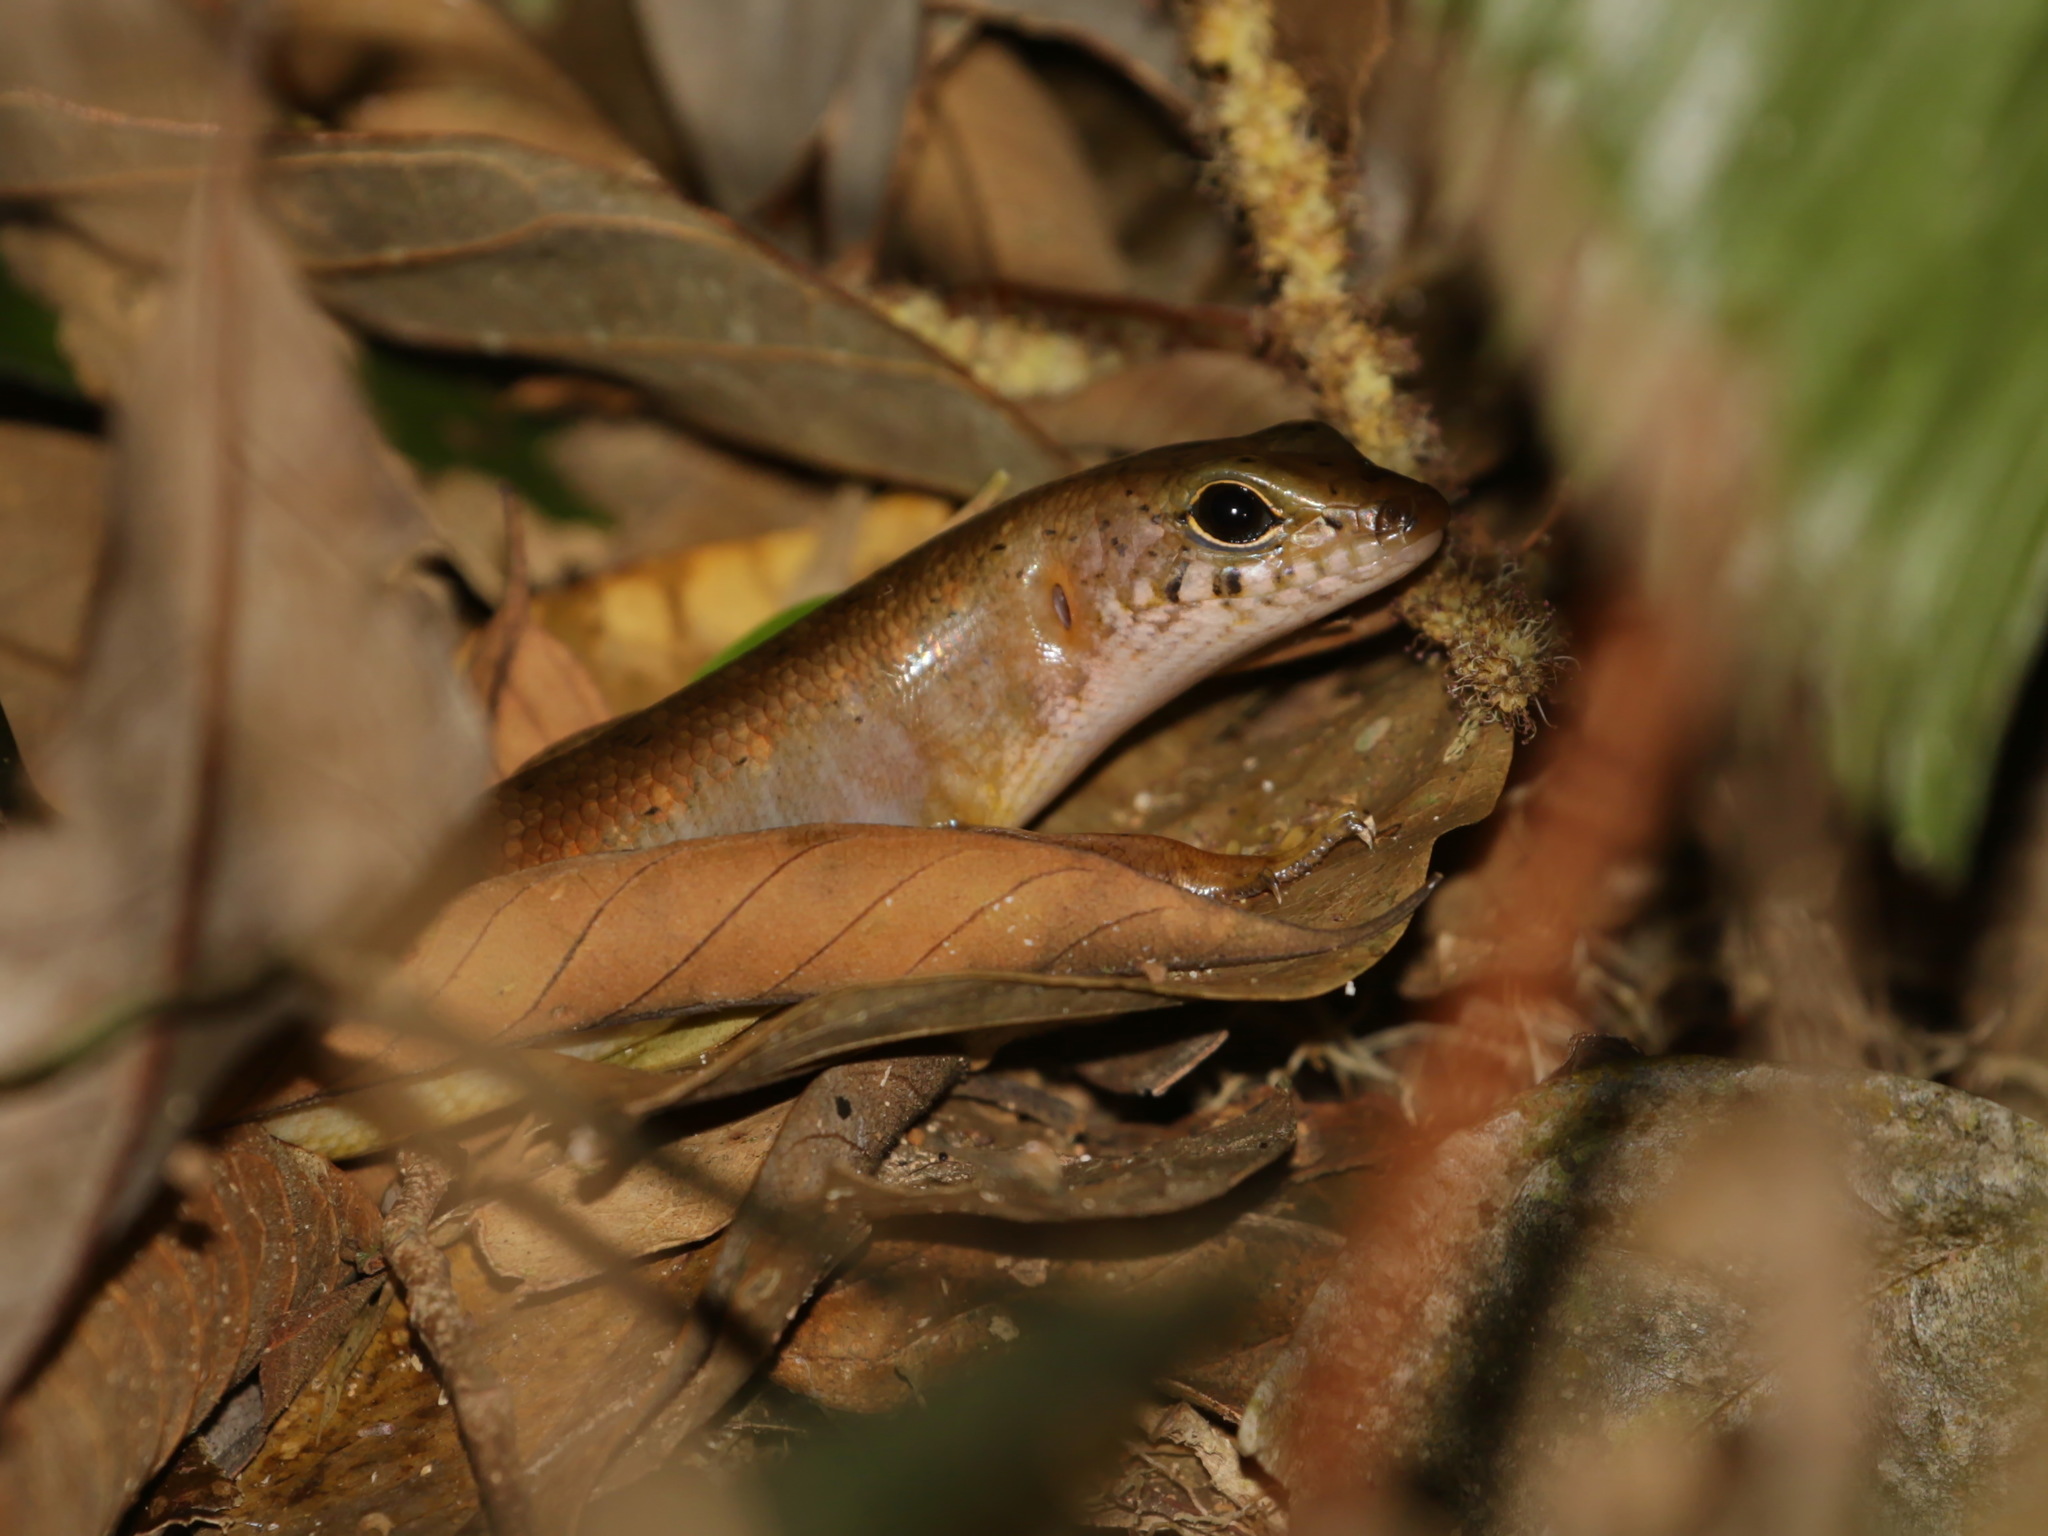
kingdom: Animalia
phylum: Chordata
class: Squamata
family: Scincidae
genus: Sphenomorphus
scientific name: Sphenomorphus sungaicolus
